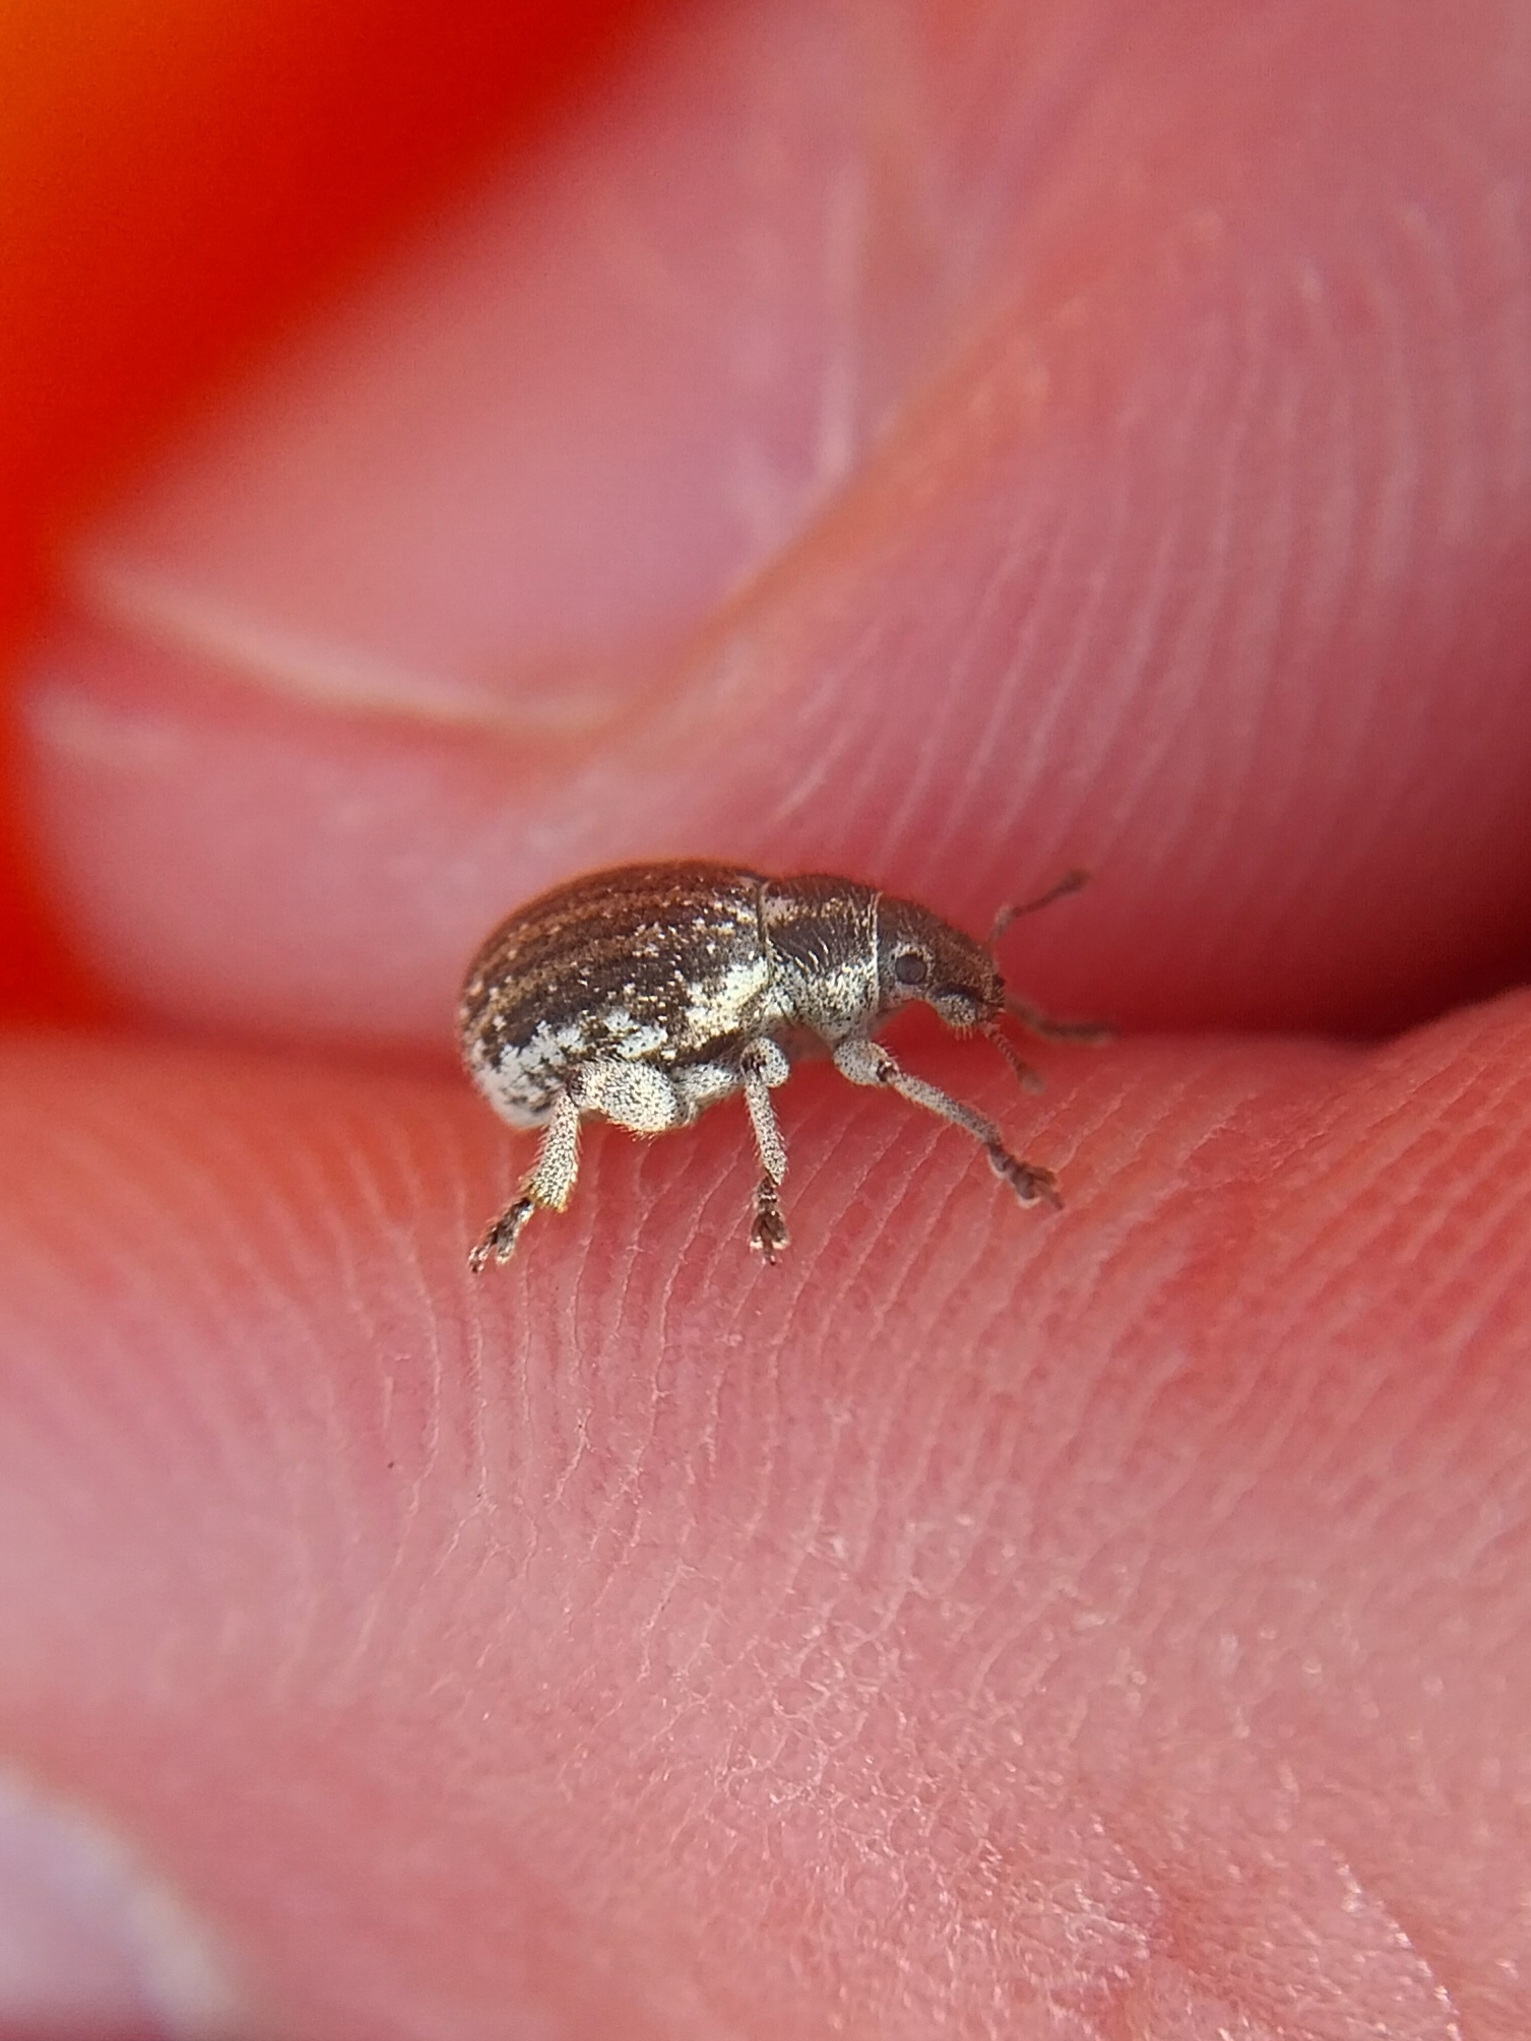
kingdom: Animalia
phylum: Arthropoda
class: Insecta
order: Coleoptera
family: Curculionidae
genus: Philopedon
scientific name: Philopedon plagiatum
